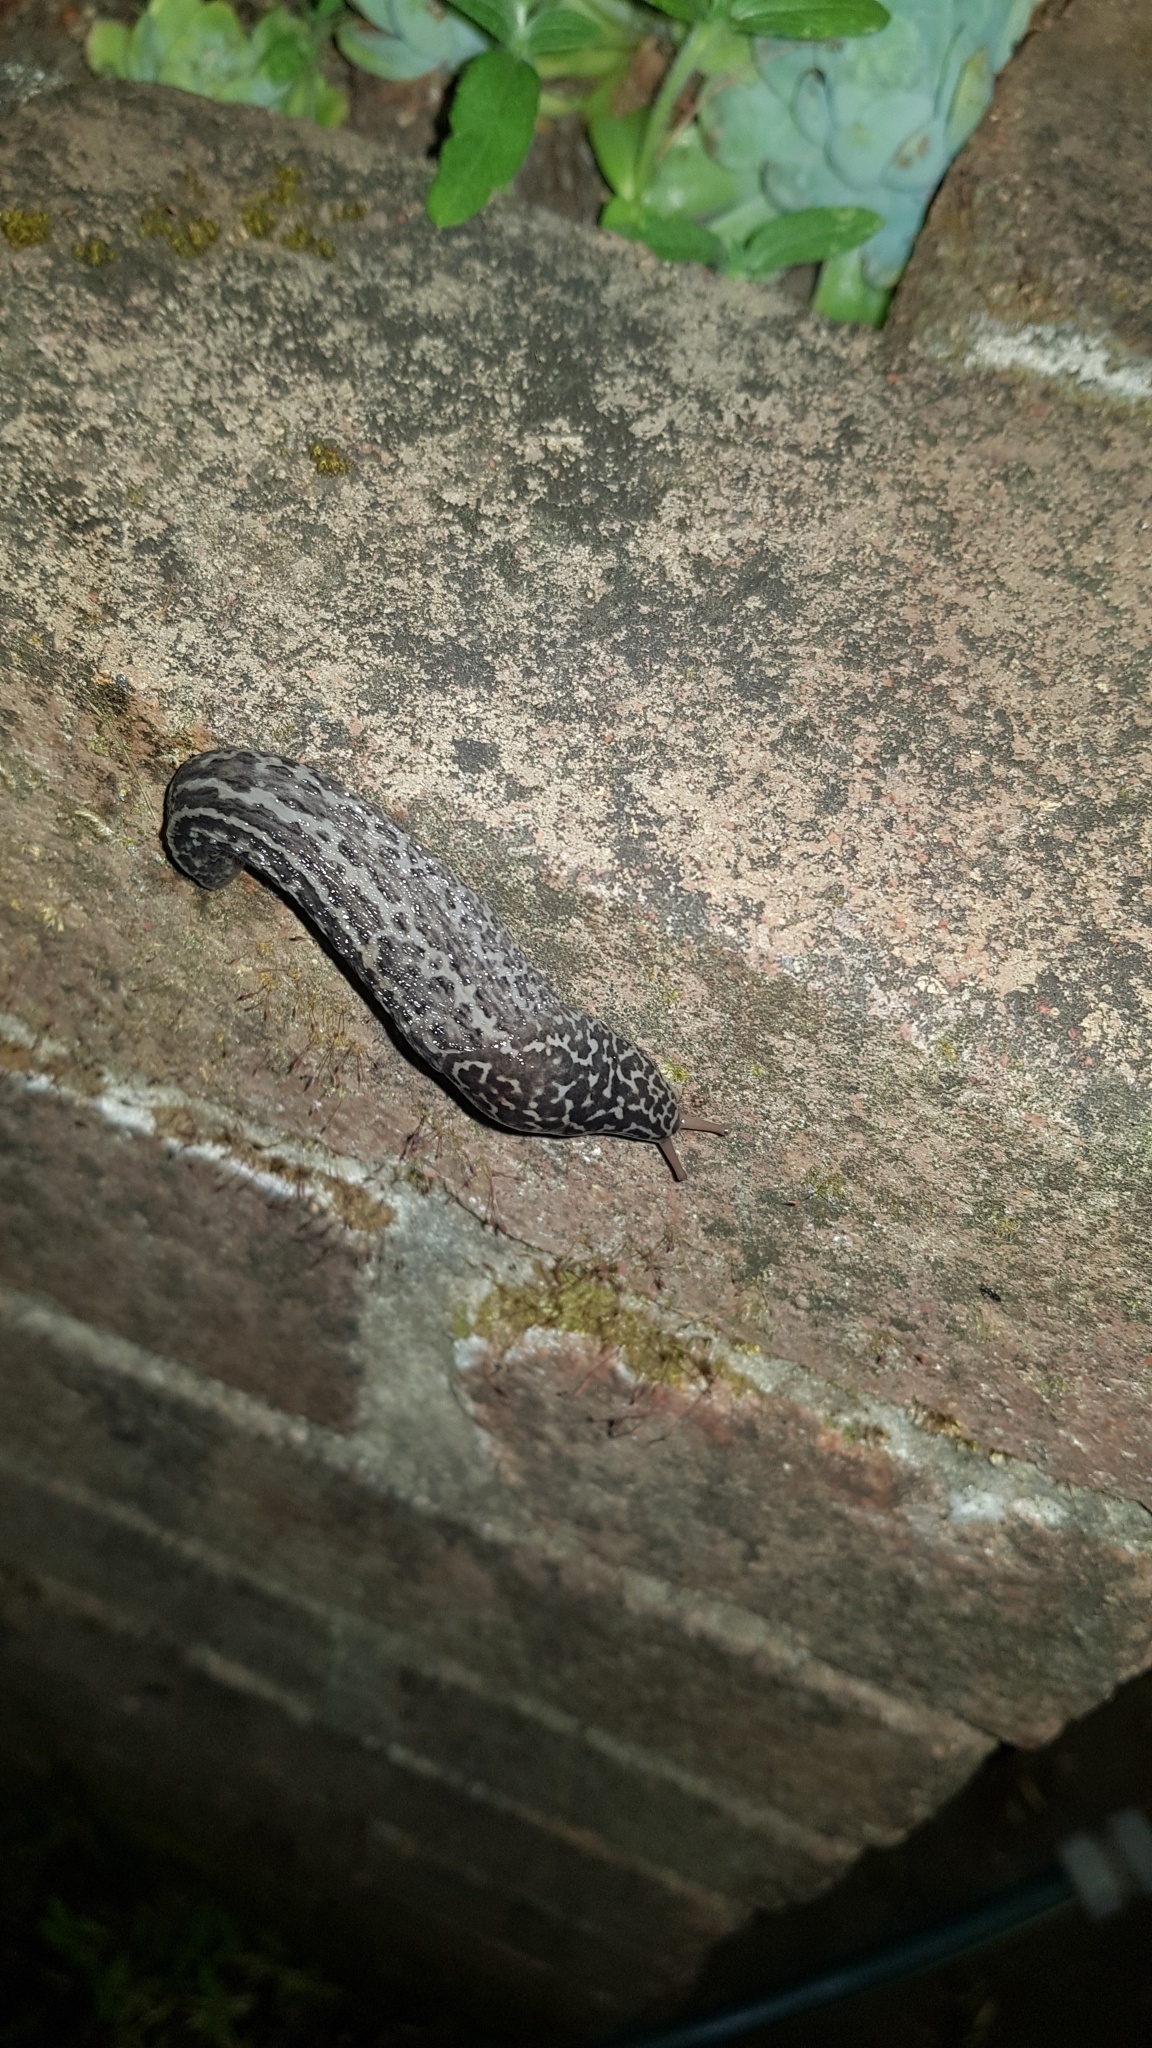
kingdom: Animalia
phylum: Mollusca
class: Gastropoda
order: Stylommatophora
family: Limacidae
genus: Limax
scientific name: Limax maximus
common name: Great grey slug
